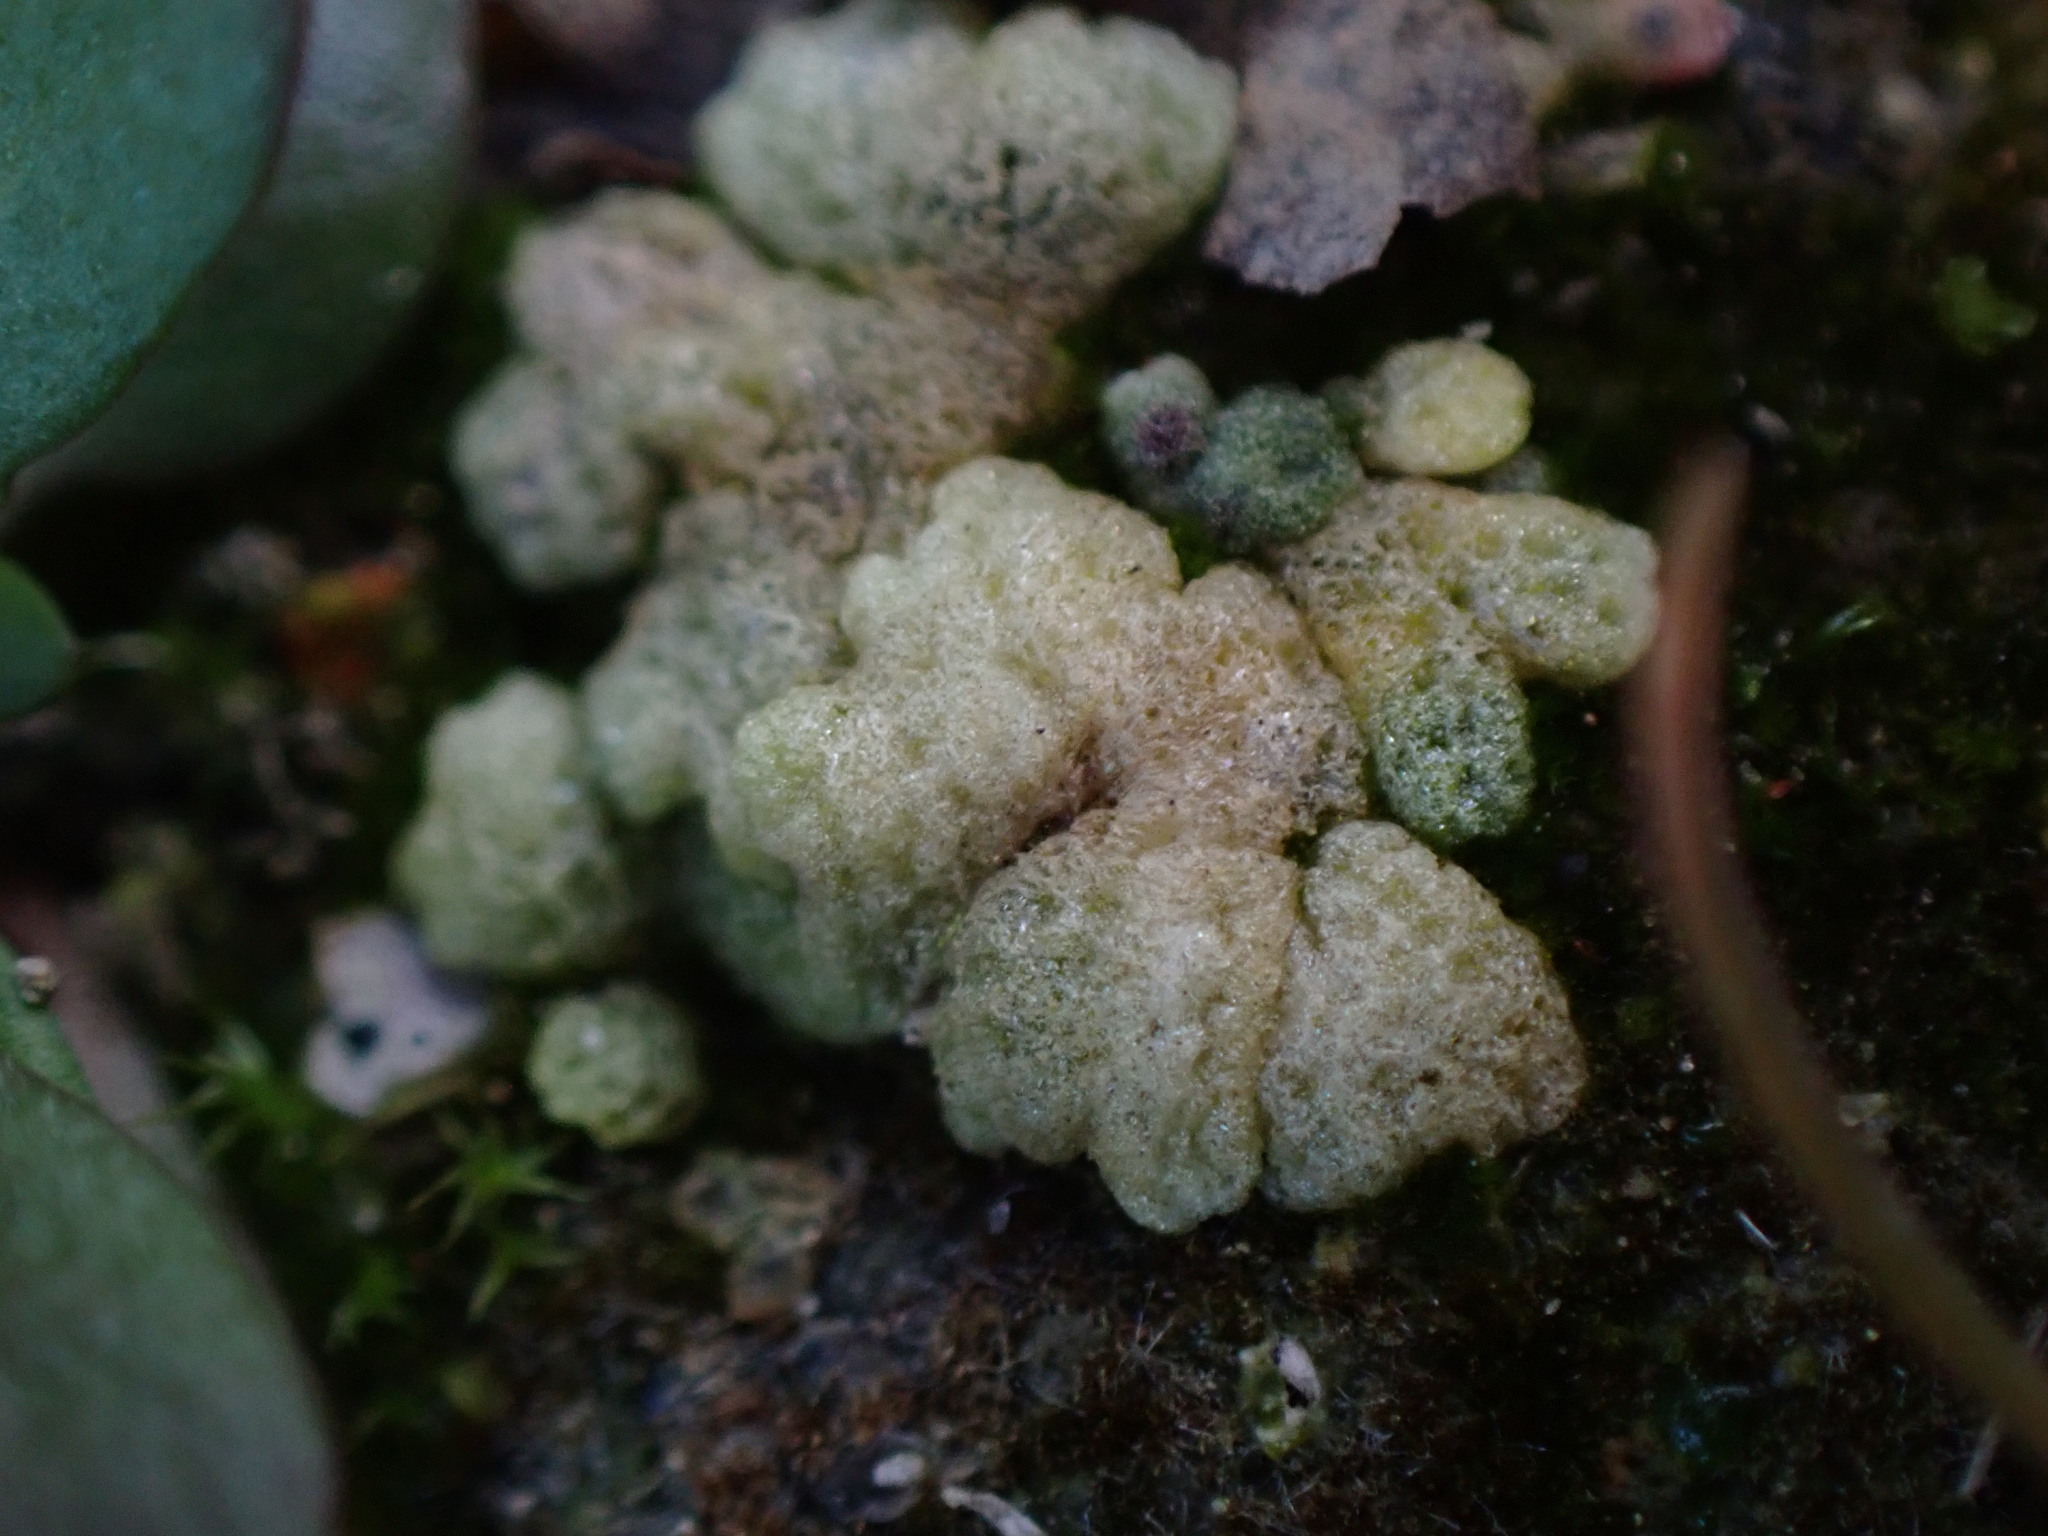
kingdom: Plantae
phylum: Marchantiophyta
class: Marchantiopsida
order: Marchantiales
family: Ricciaceae
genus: Riccia
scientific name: Riccia cavernosa
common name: Cavernous crystalwort
